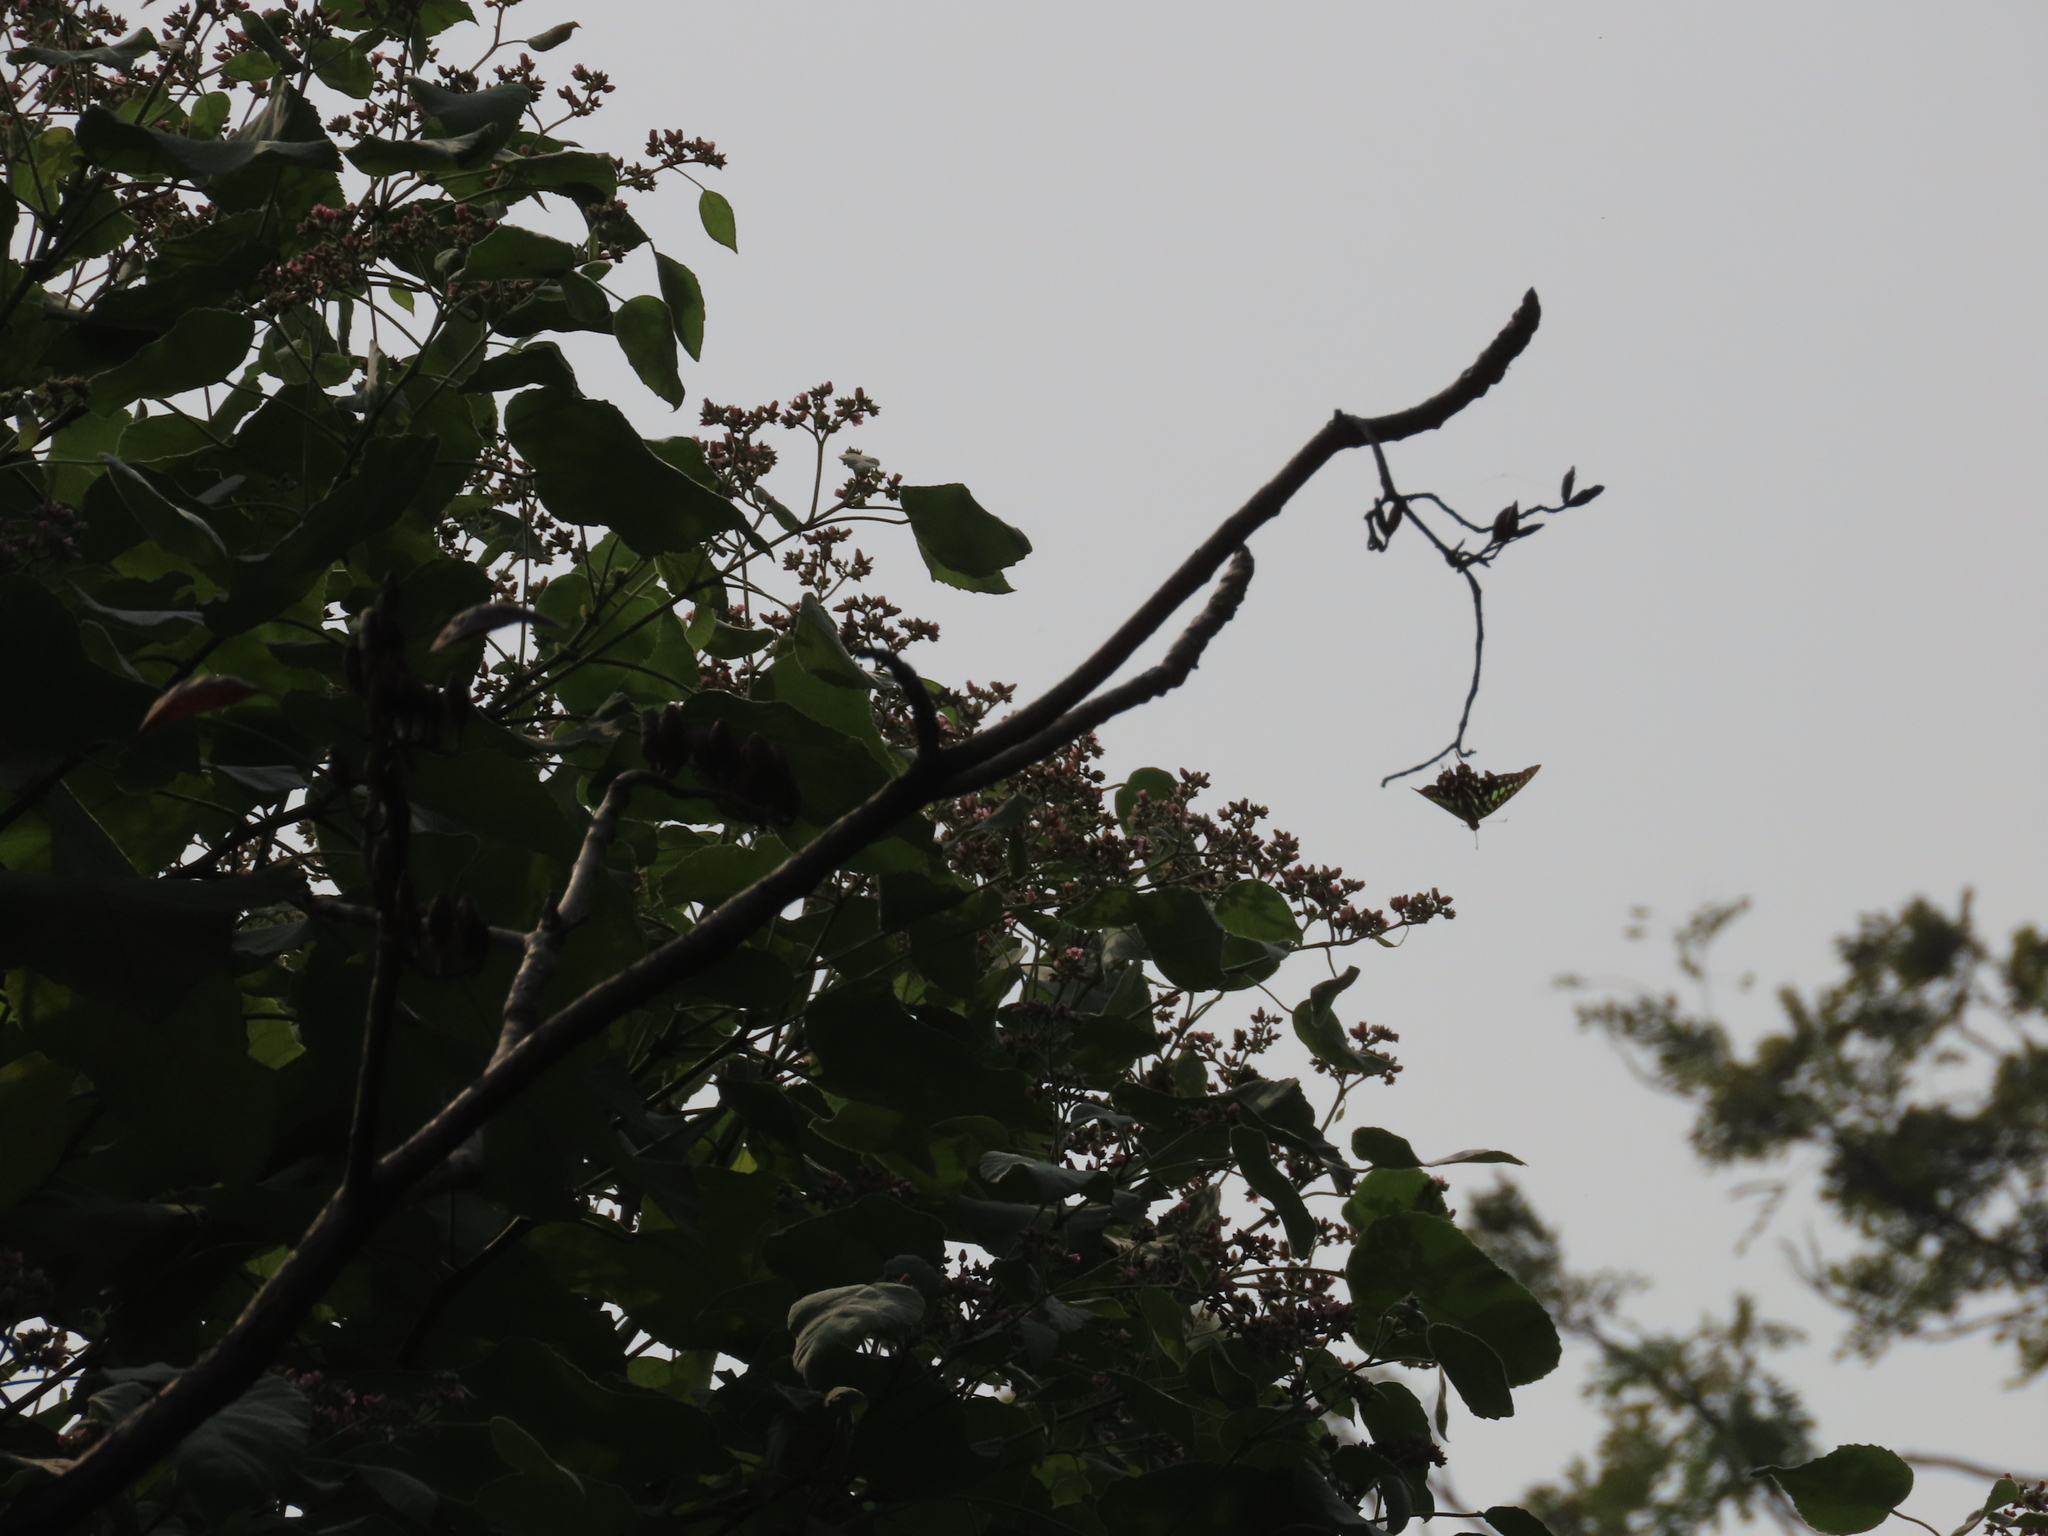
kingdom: Animalia
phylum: Arthropoda
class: Insecta
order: Lepidoptera
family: Papilionidae
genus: Graphium
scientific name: Graphium agamemnon
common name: Tailed jay
